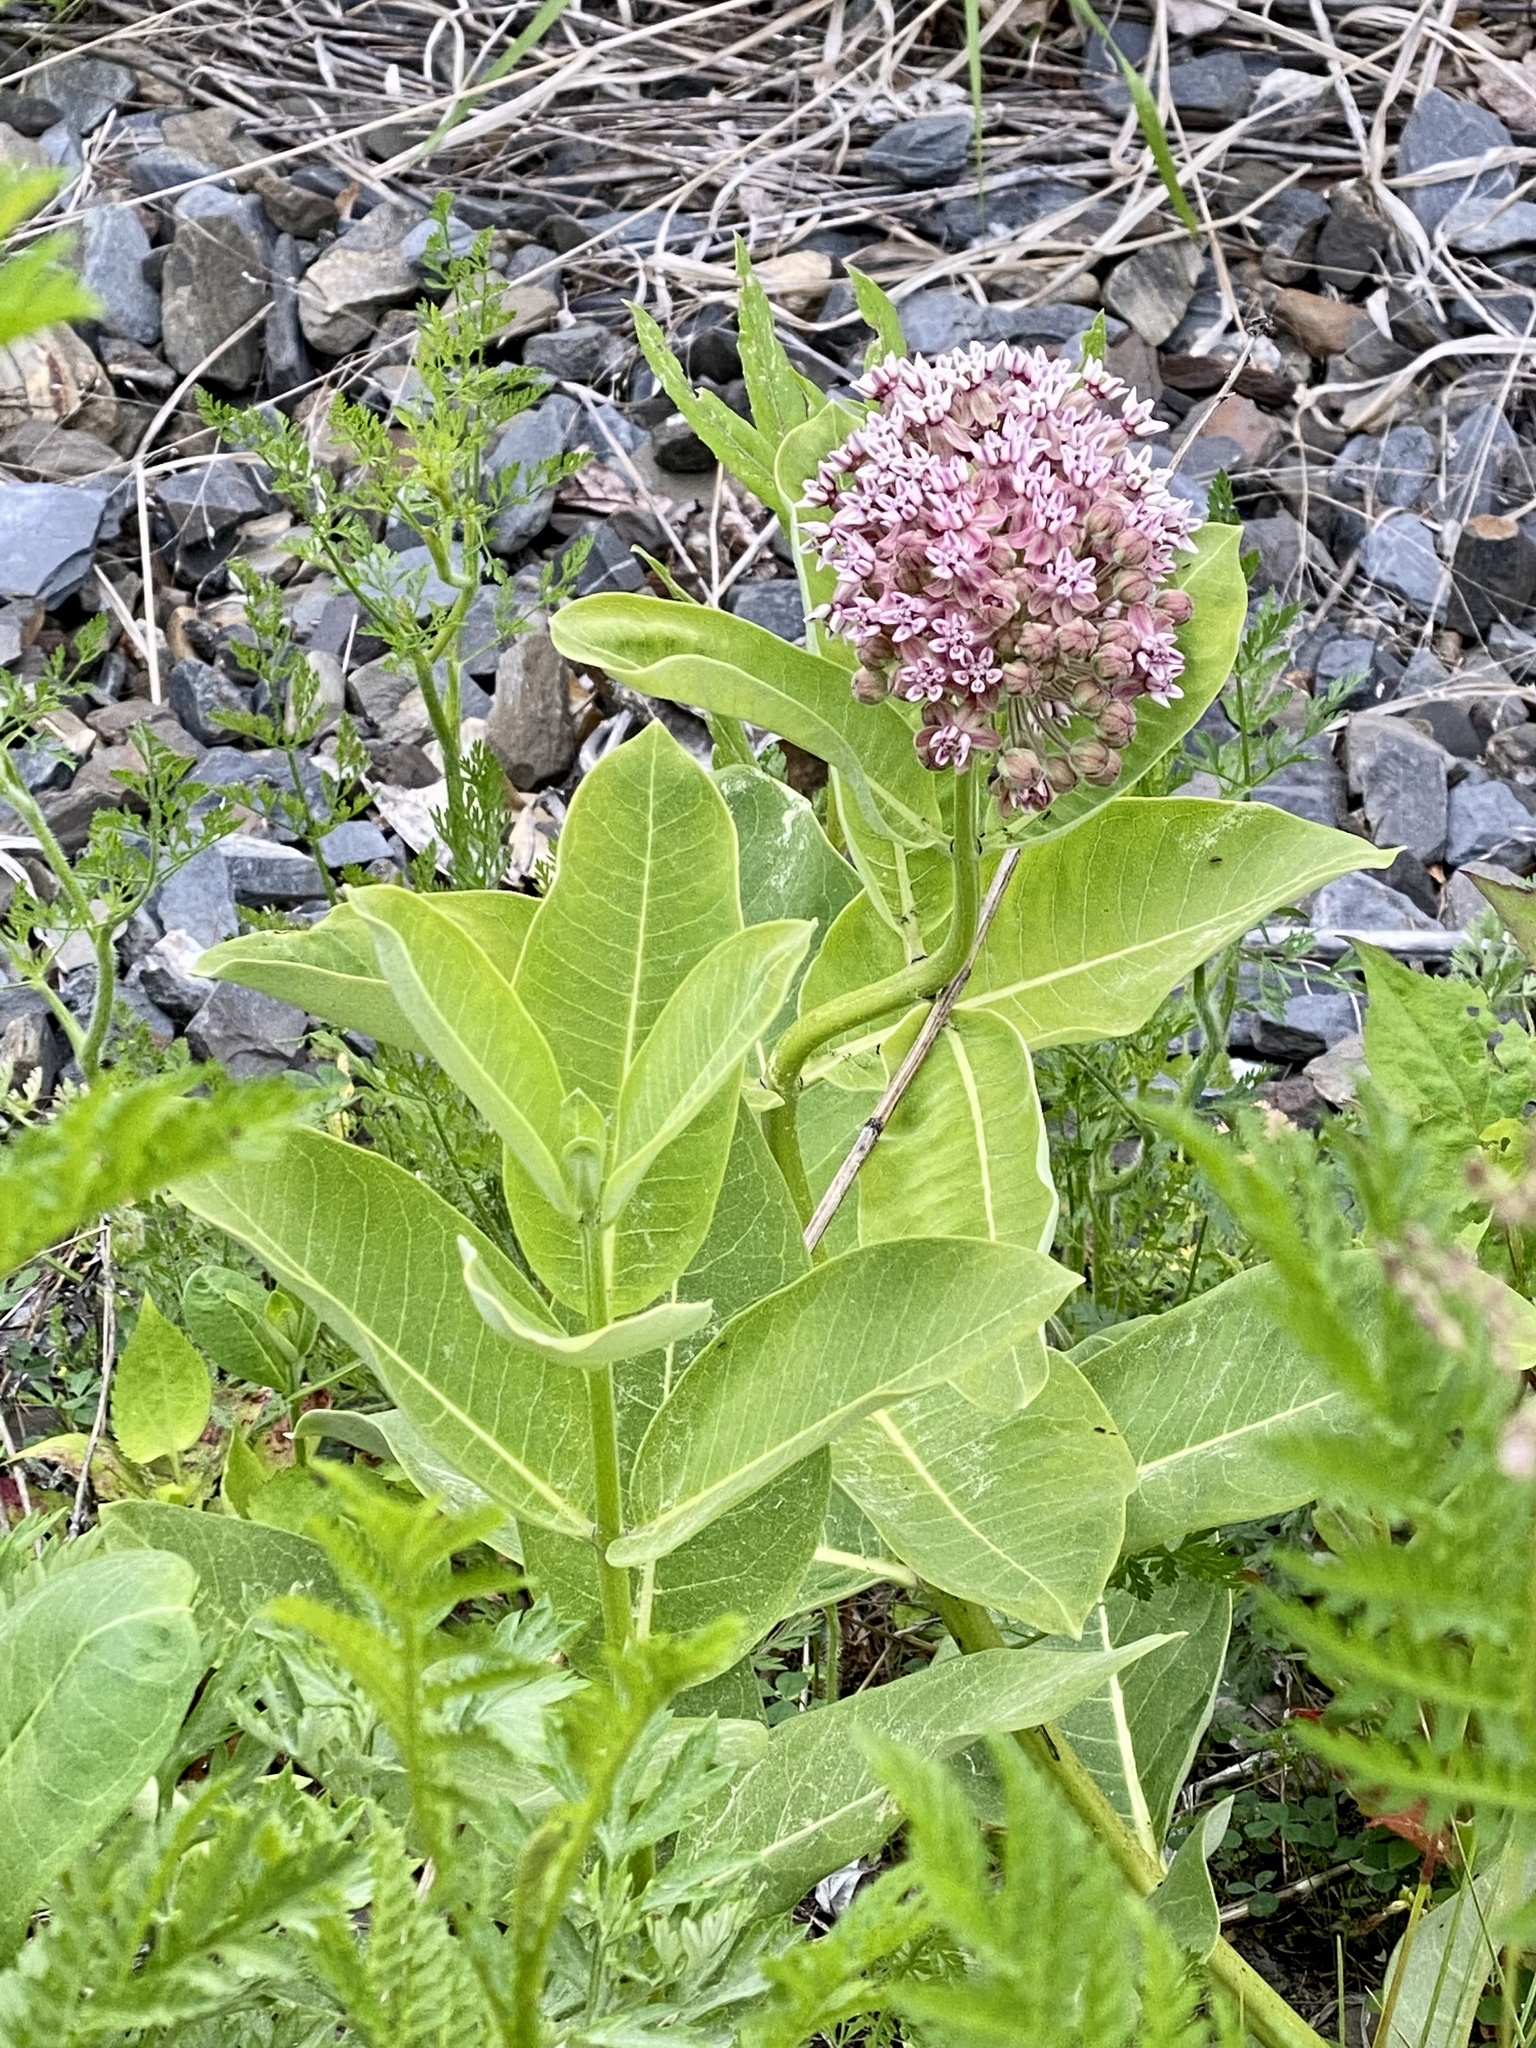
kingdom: Plantae
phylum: Tracheophyta
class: Magnoliopsida
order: Gentianales
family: Apocynaceae
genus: Asclepias
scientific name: Asclepias syriaca
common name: Common milkweed
